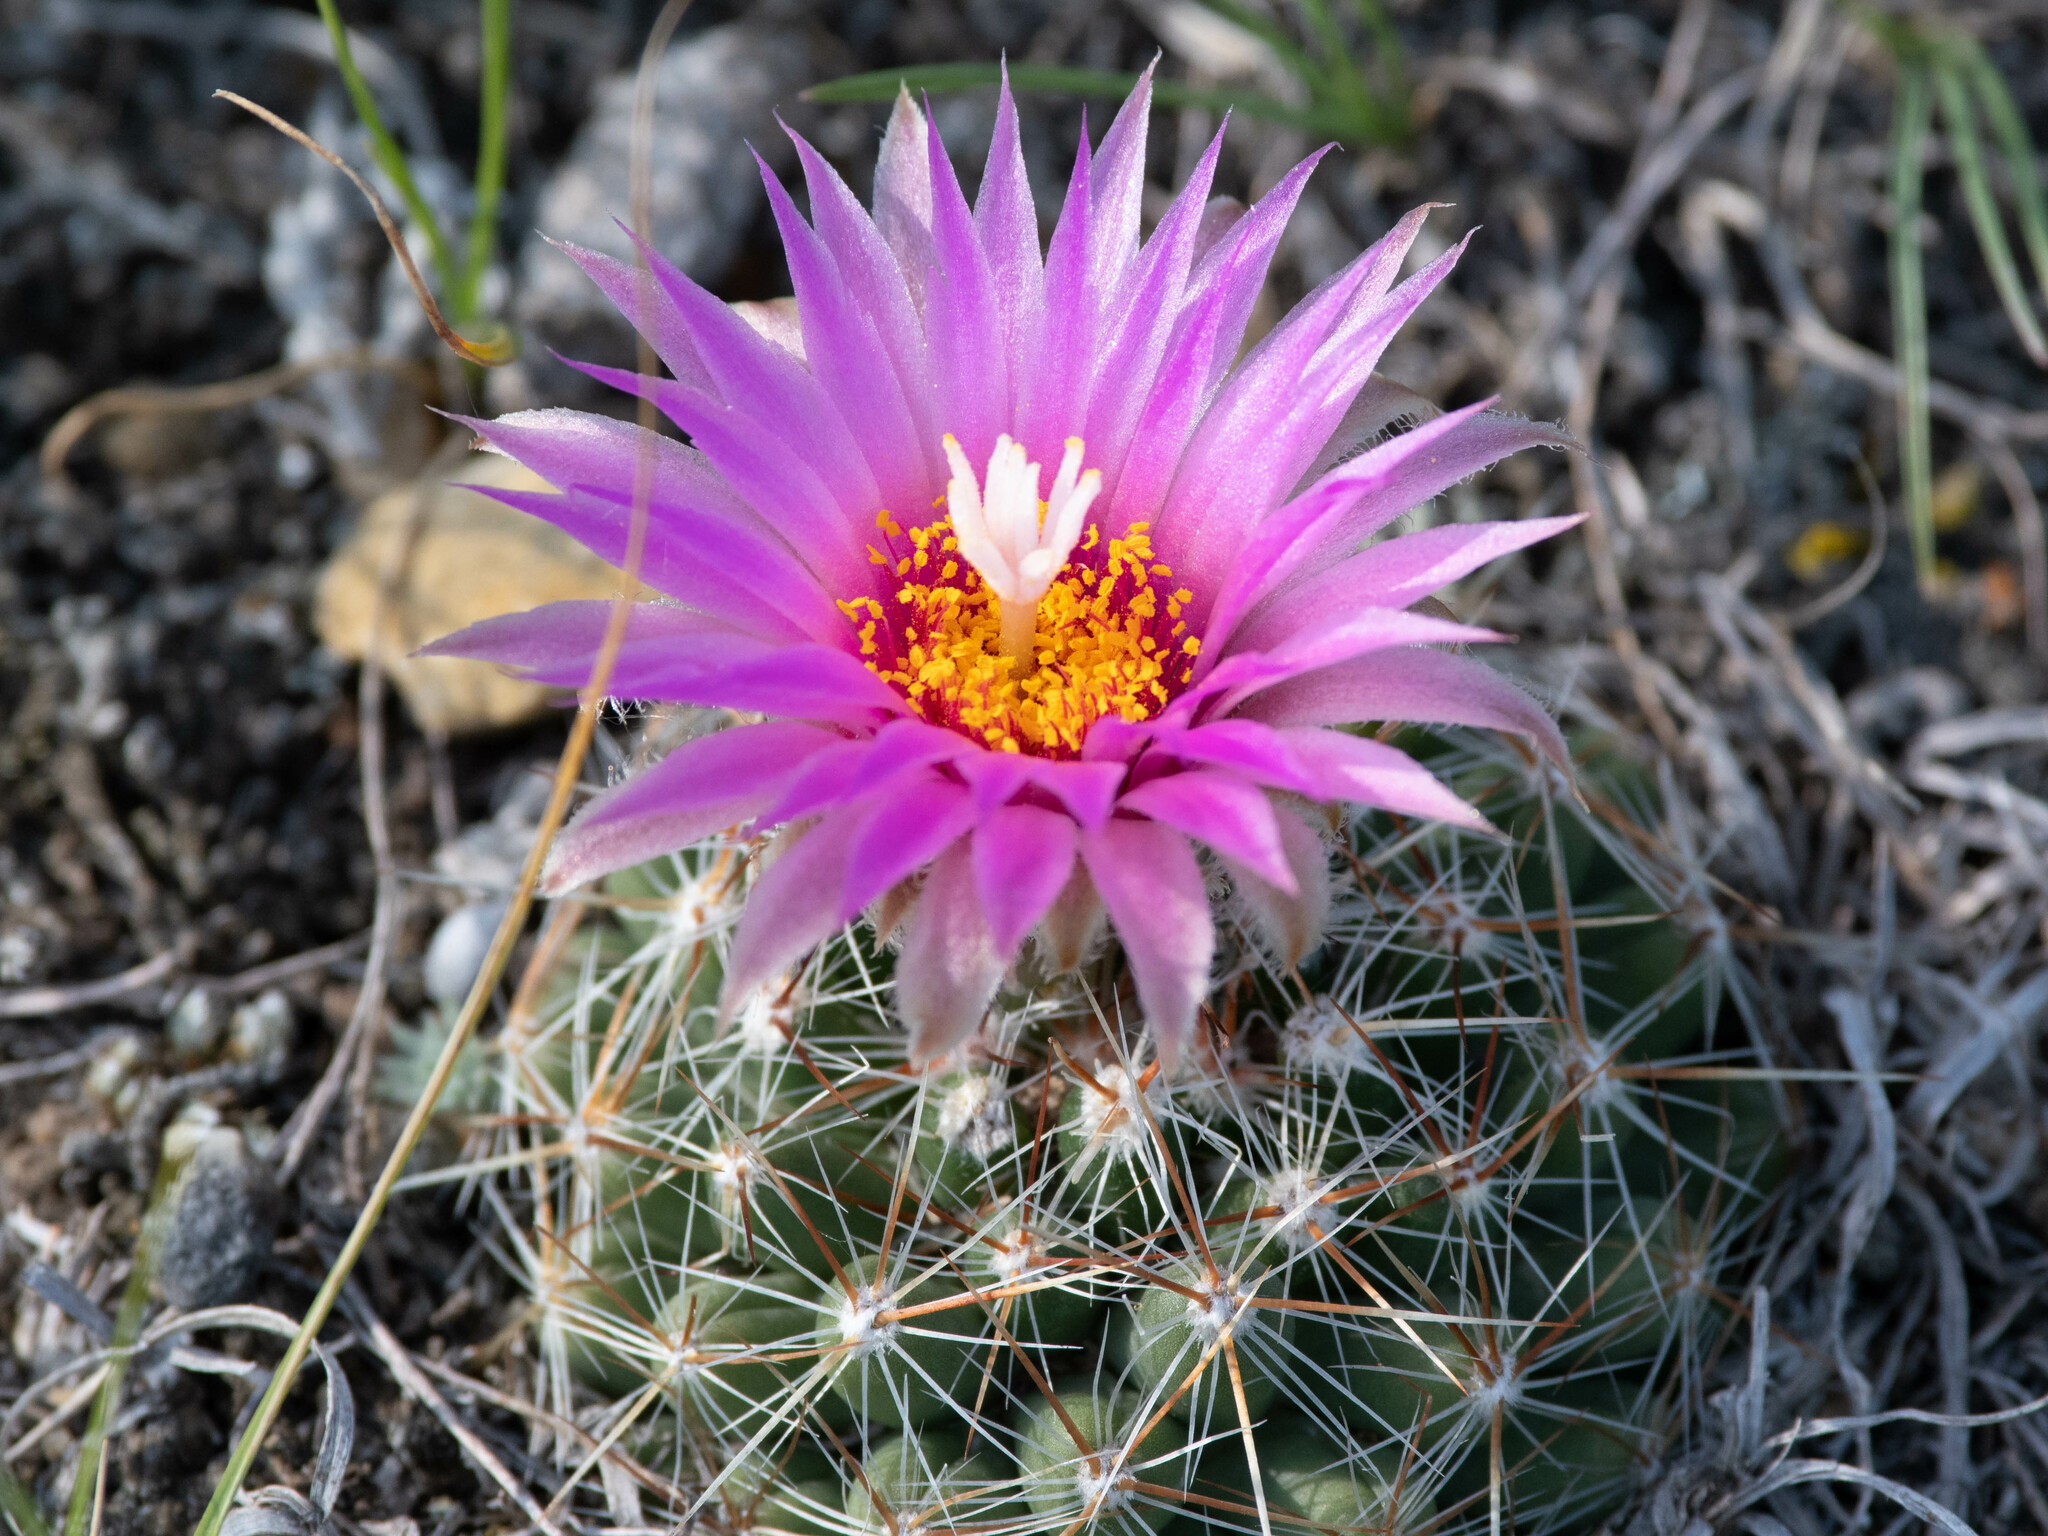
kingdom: Plantae
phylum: Tracheophyta
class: Magnoliopsida
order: Caryophyllales
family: Cactaceae
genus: Pelecyphora
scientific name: Pelecyphora vivipara
